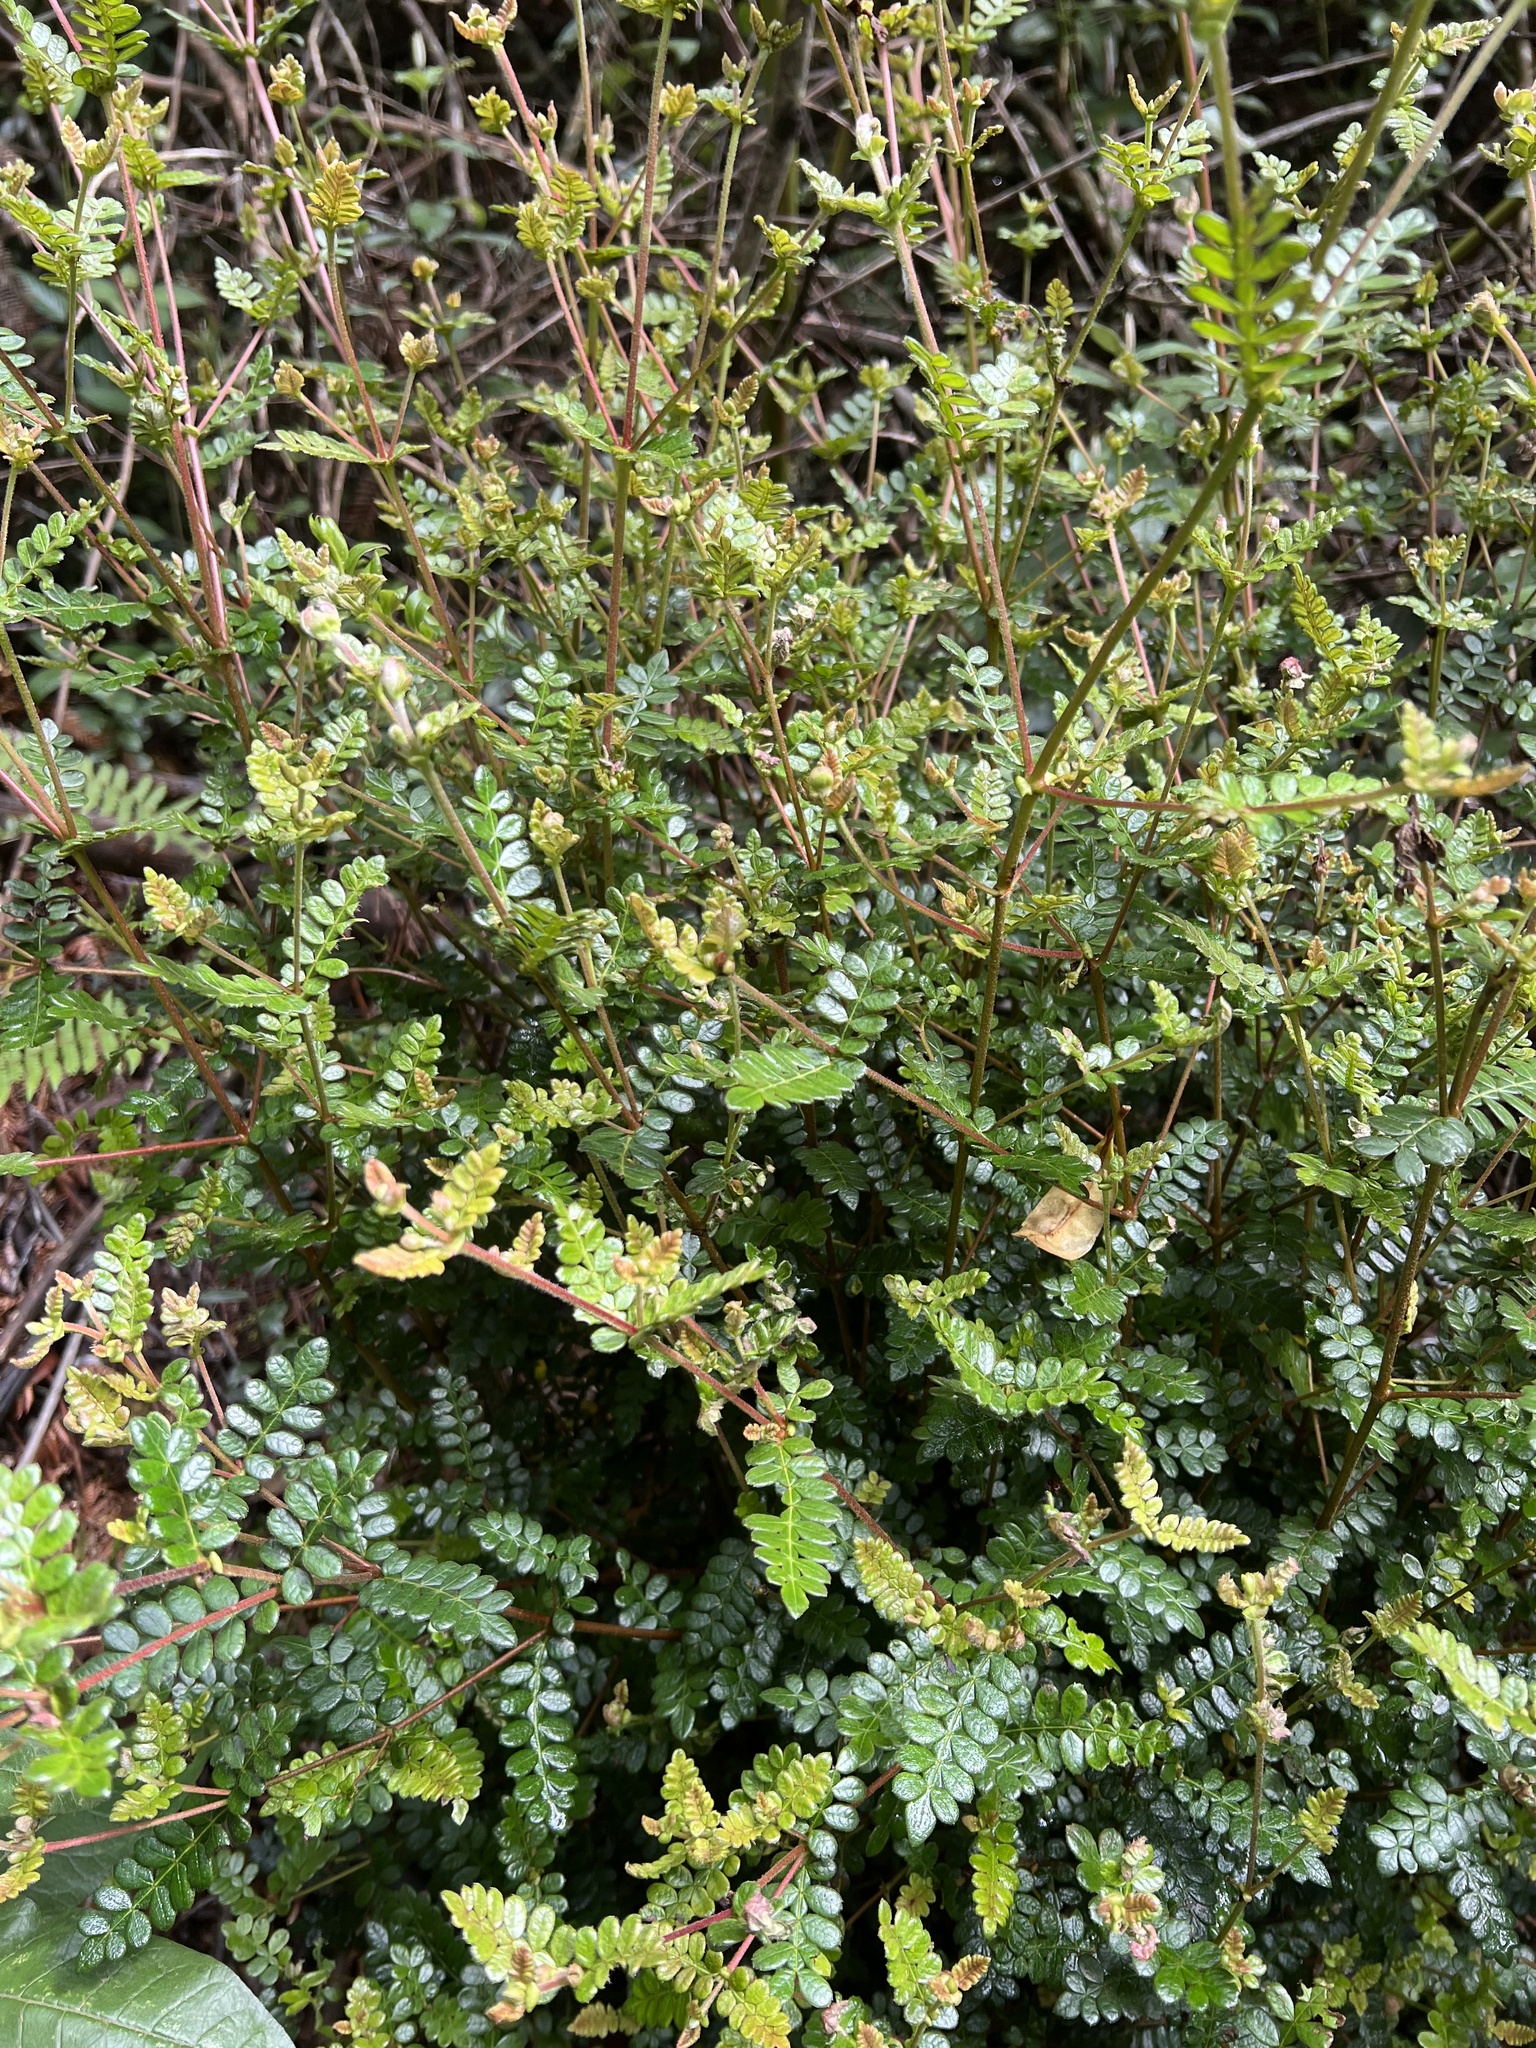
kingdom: Plantae
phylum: Tracheophyta
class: Magnoliopsida
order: Oxalidales
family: Cunoniaceae
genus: Weinmannia
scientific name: Weinmannia tomentosa
